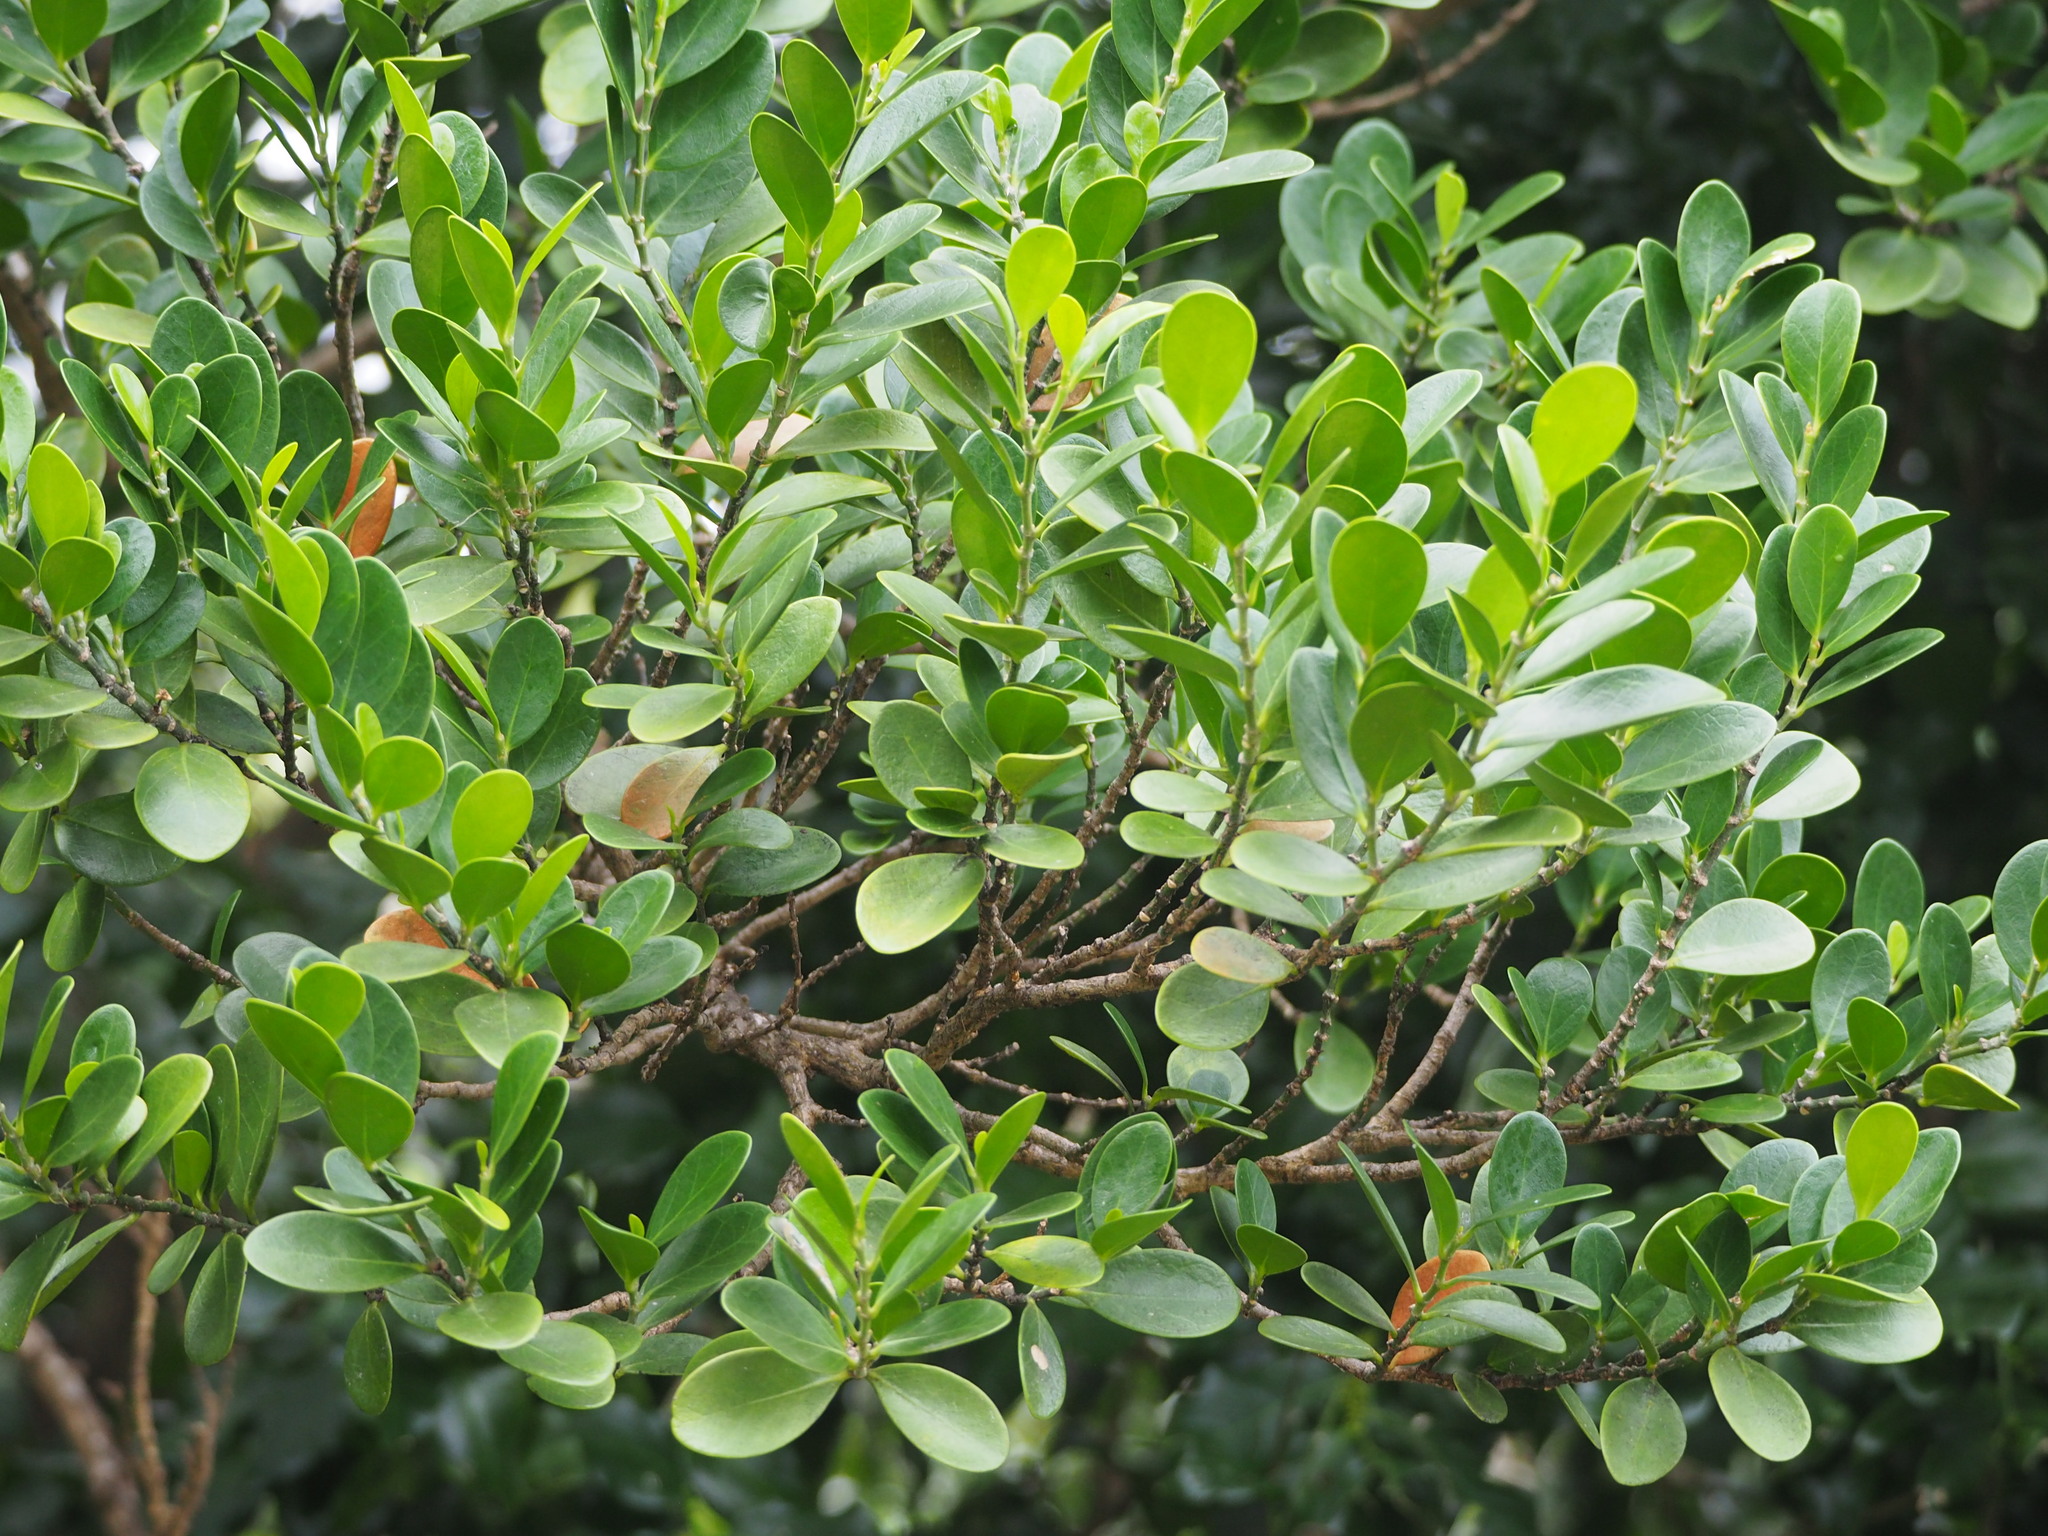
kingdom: Plantae
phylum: Tracheophyta
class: Magnoliopsida
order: Malpighiales
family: Euphorbiaceae
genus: Suregada
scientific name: Suregada aequorea
